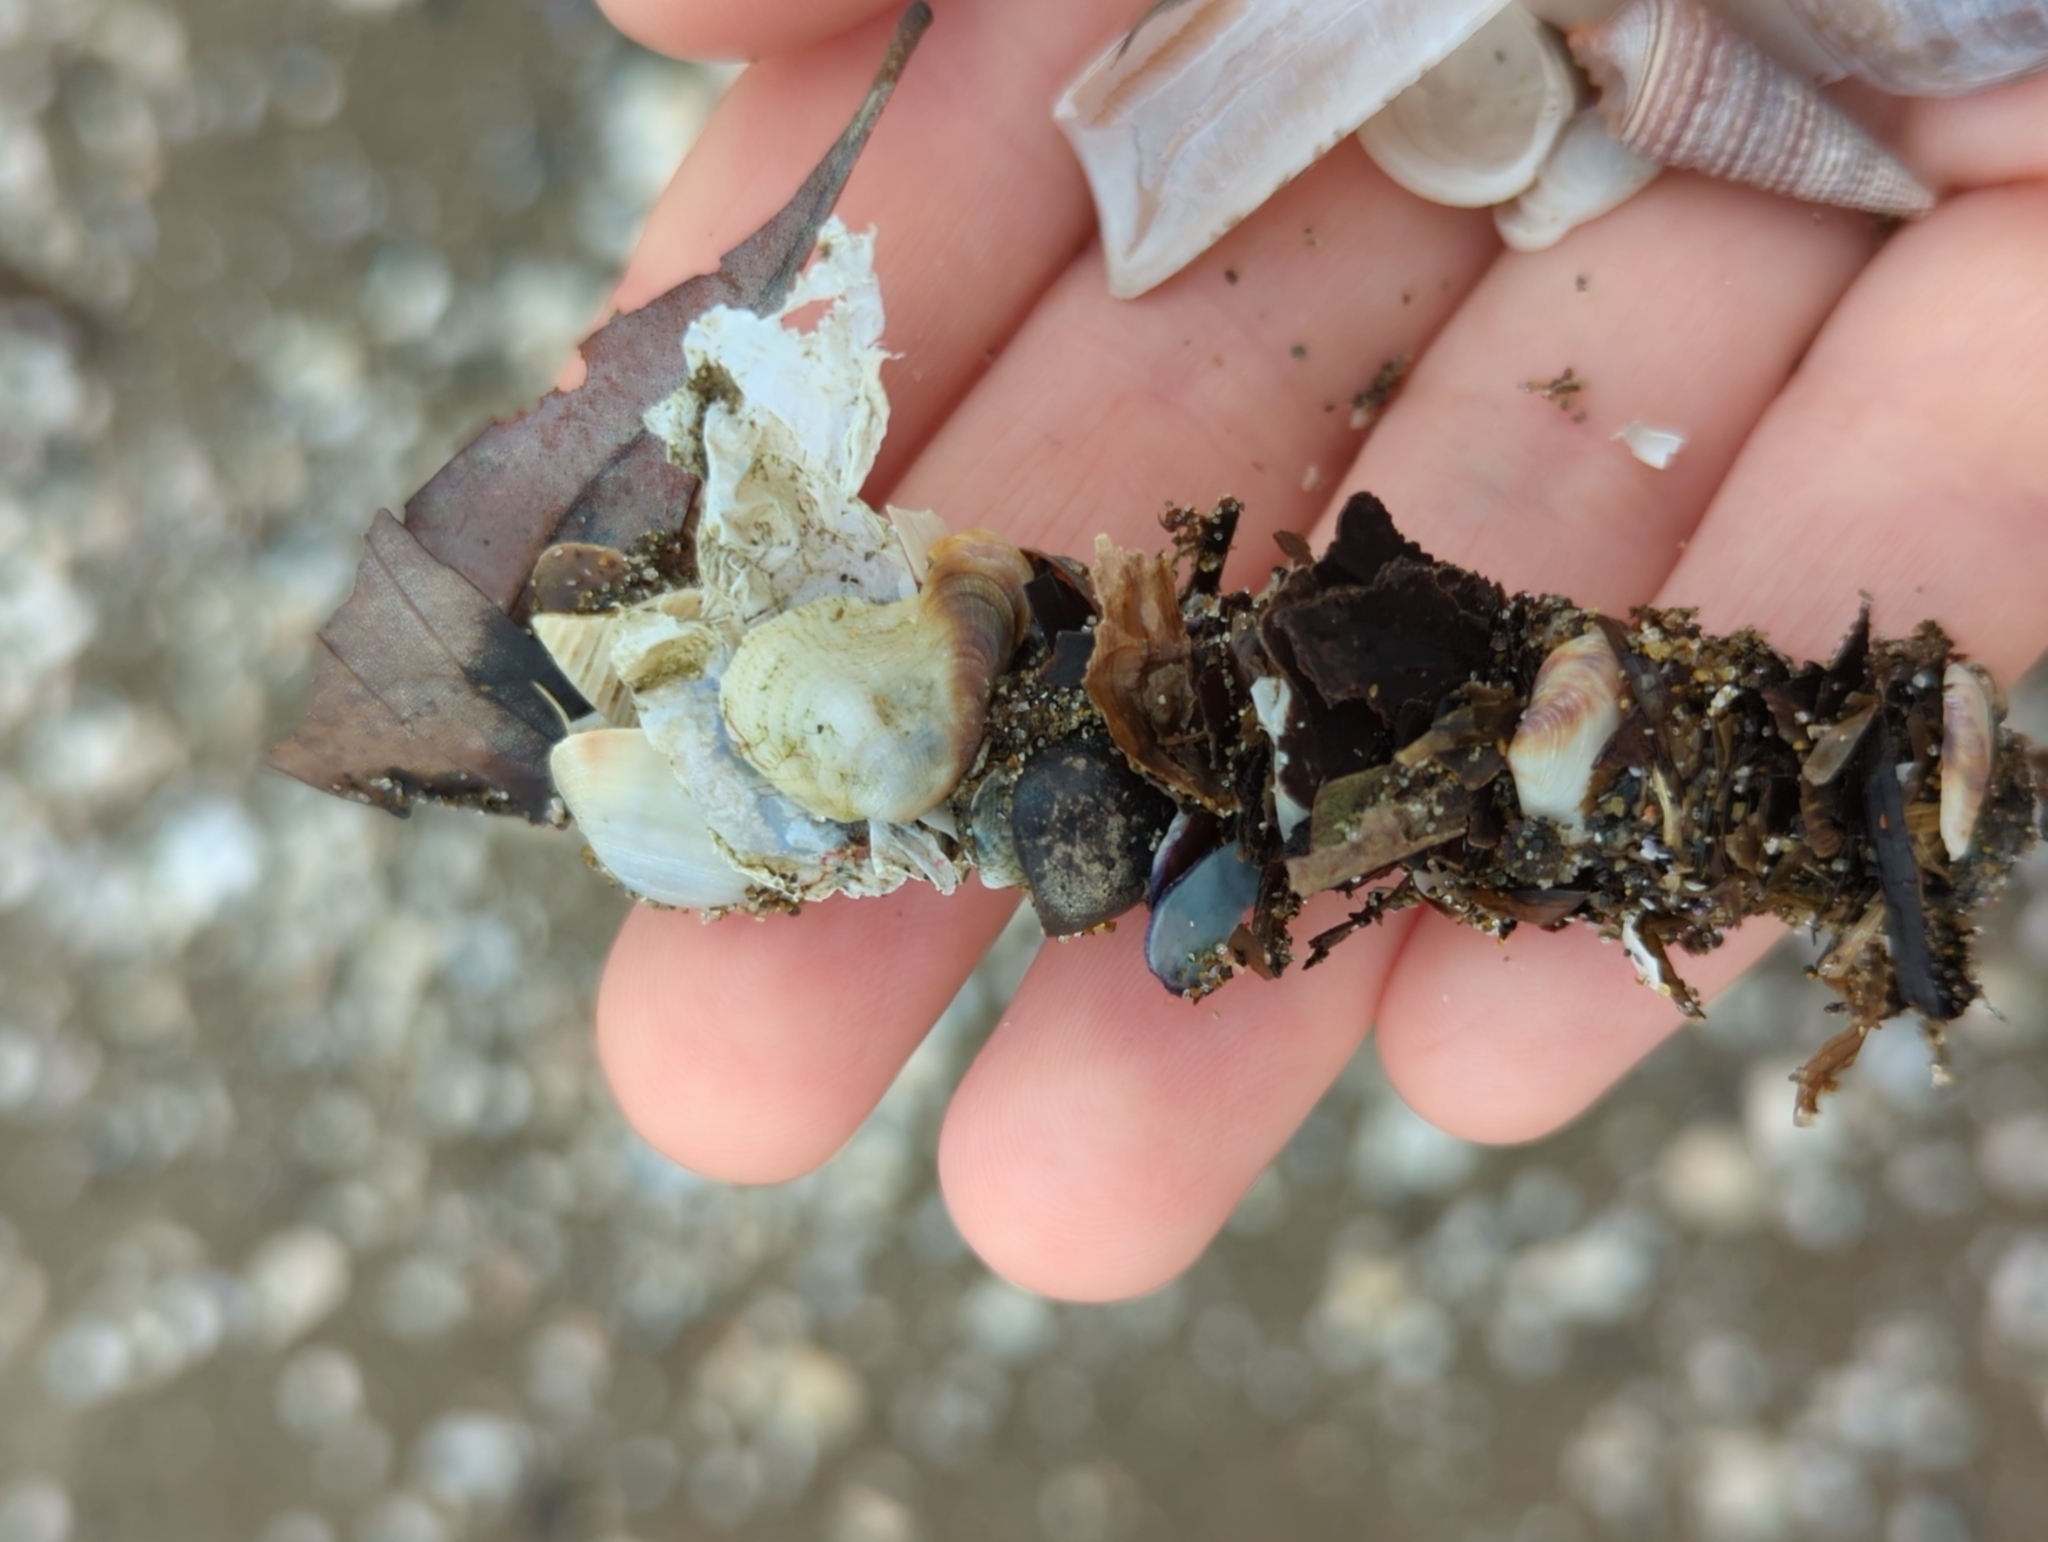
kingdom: Animalia
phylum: Annelida
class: Polychaeta
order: Eunicida
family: Onuphidae
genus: Diopatra
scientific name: Diopatra sugokai
